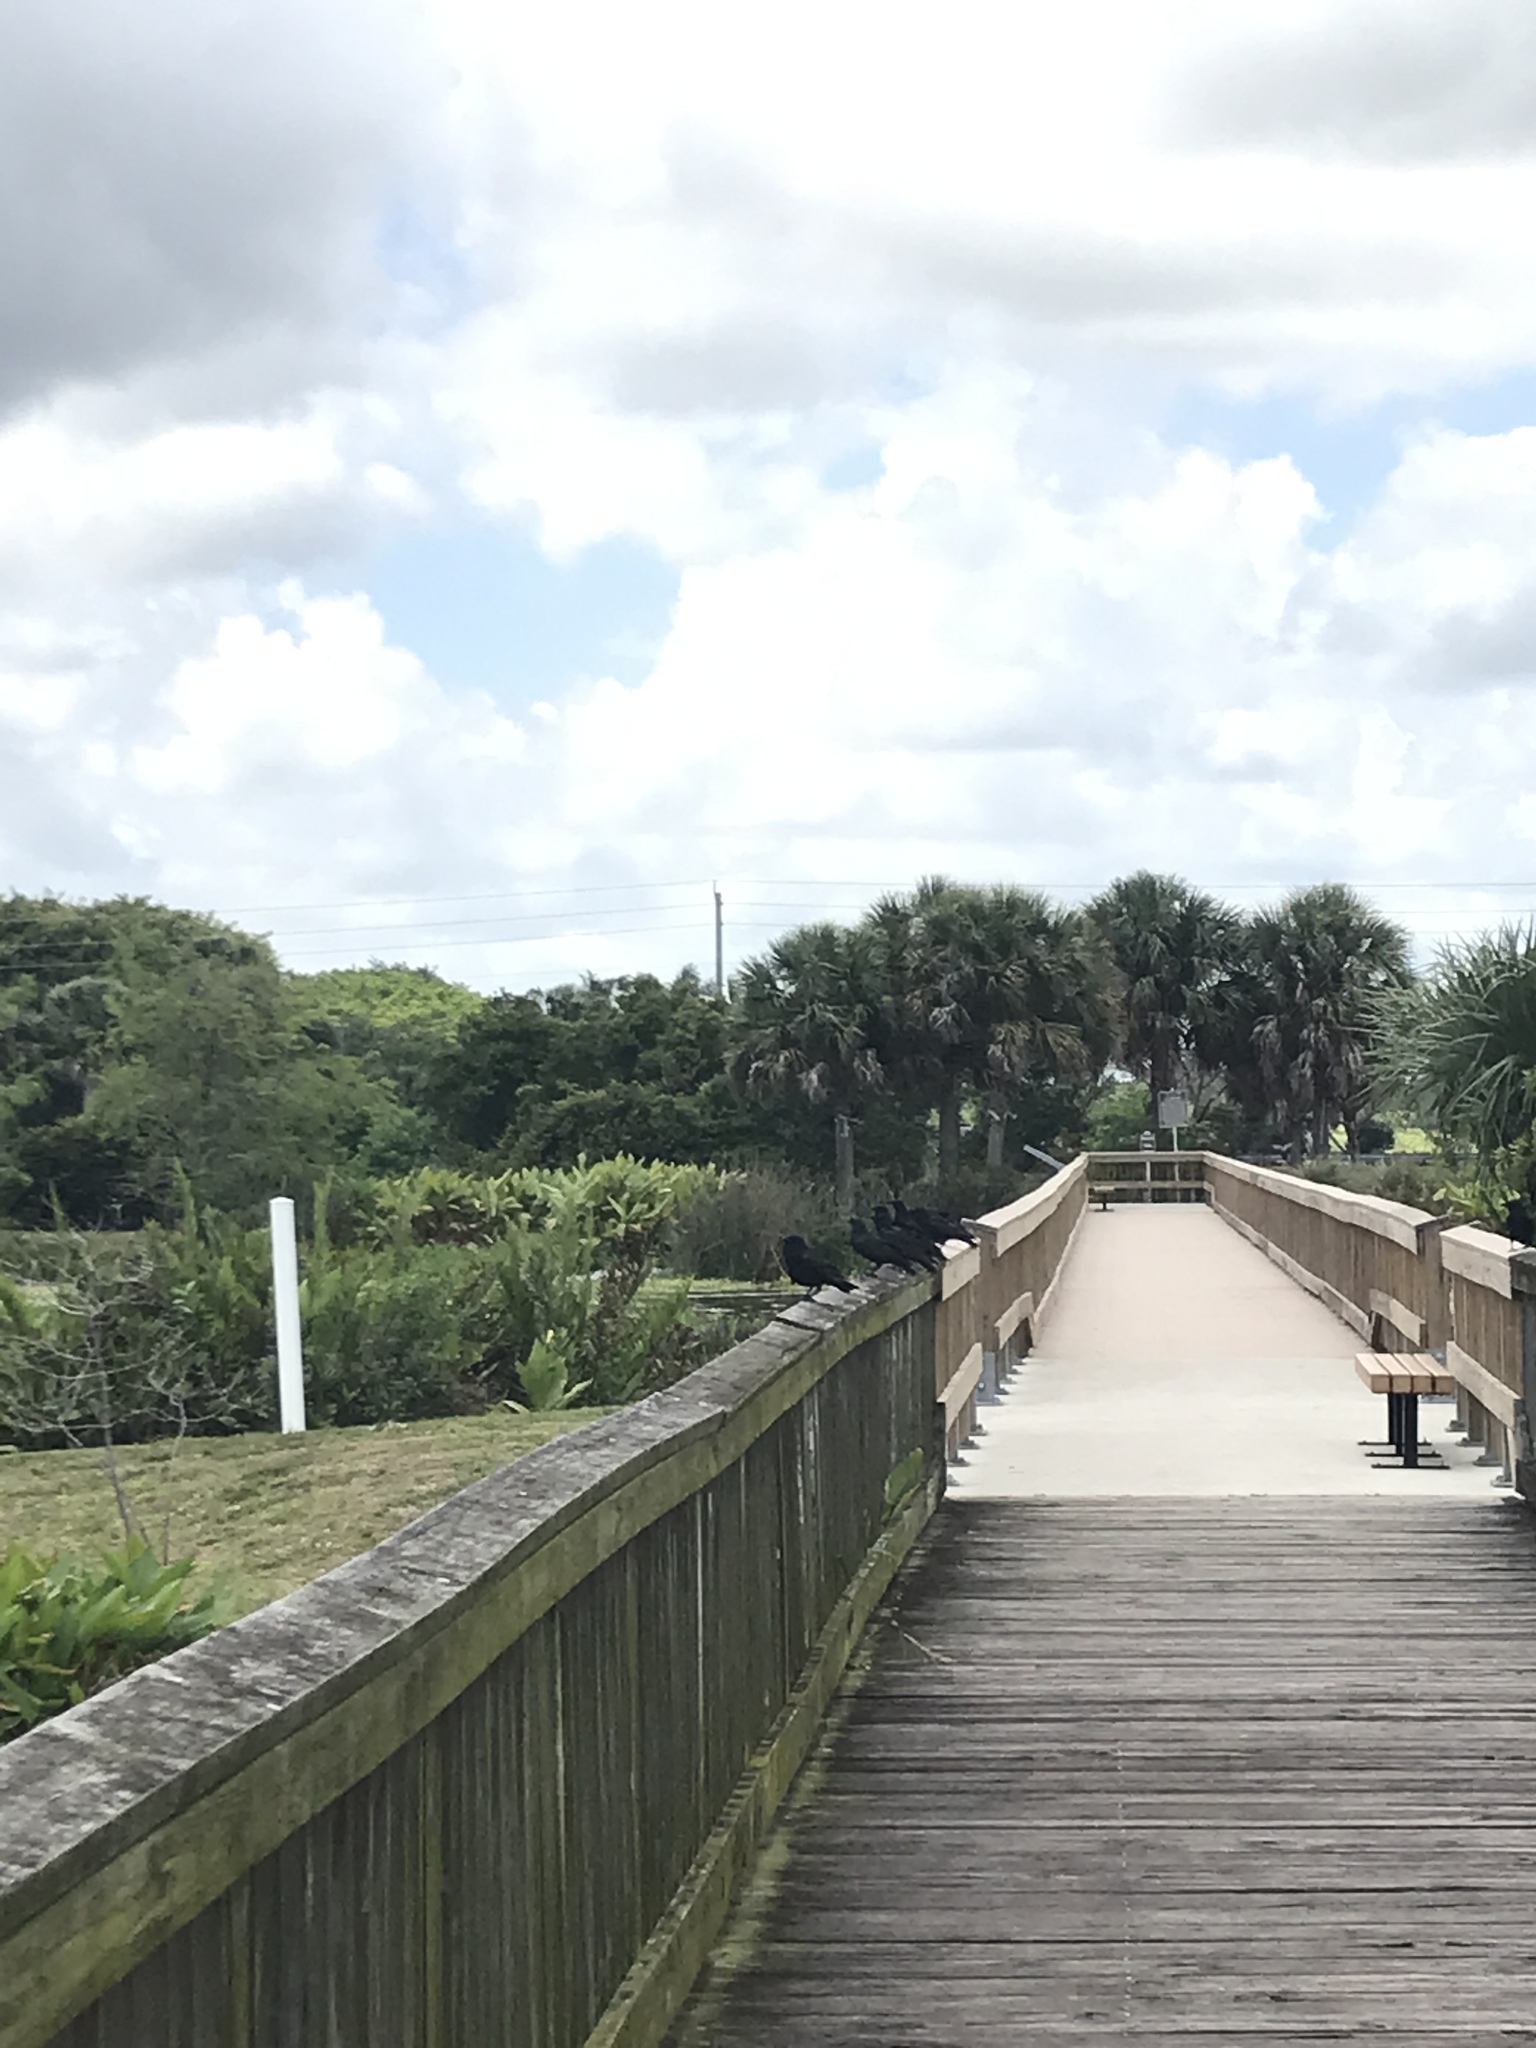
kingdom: Animalia
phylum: Chordata
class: Aves
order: Passeriformes
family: Corvidae
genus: Corvus
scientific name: Corvus ossifragus
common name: Fish crow
